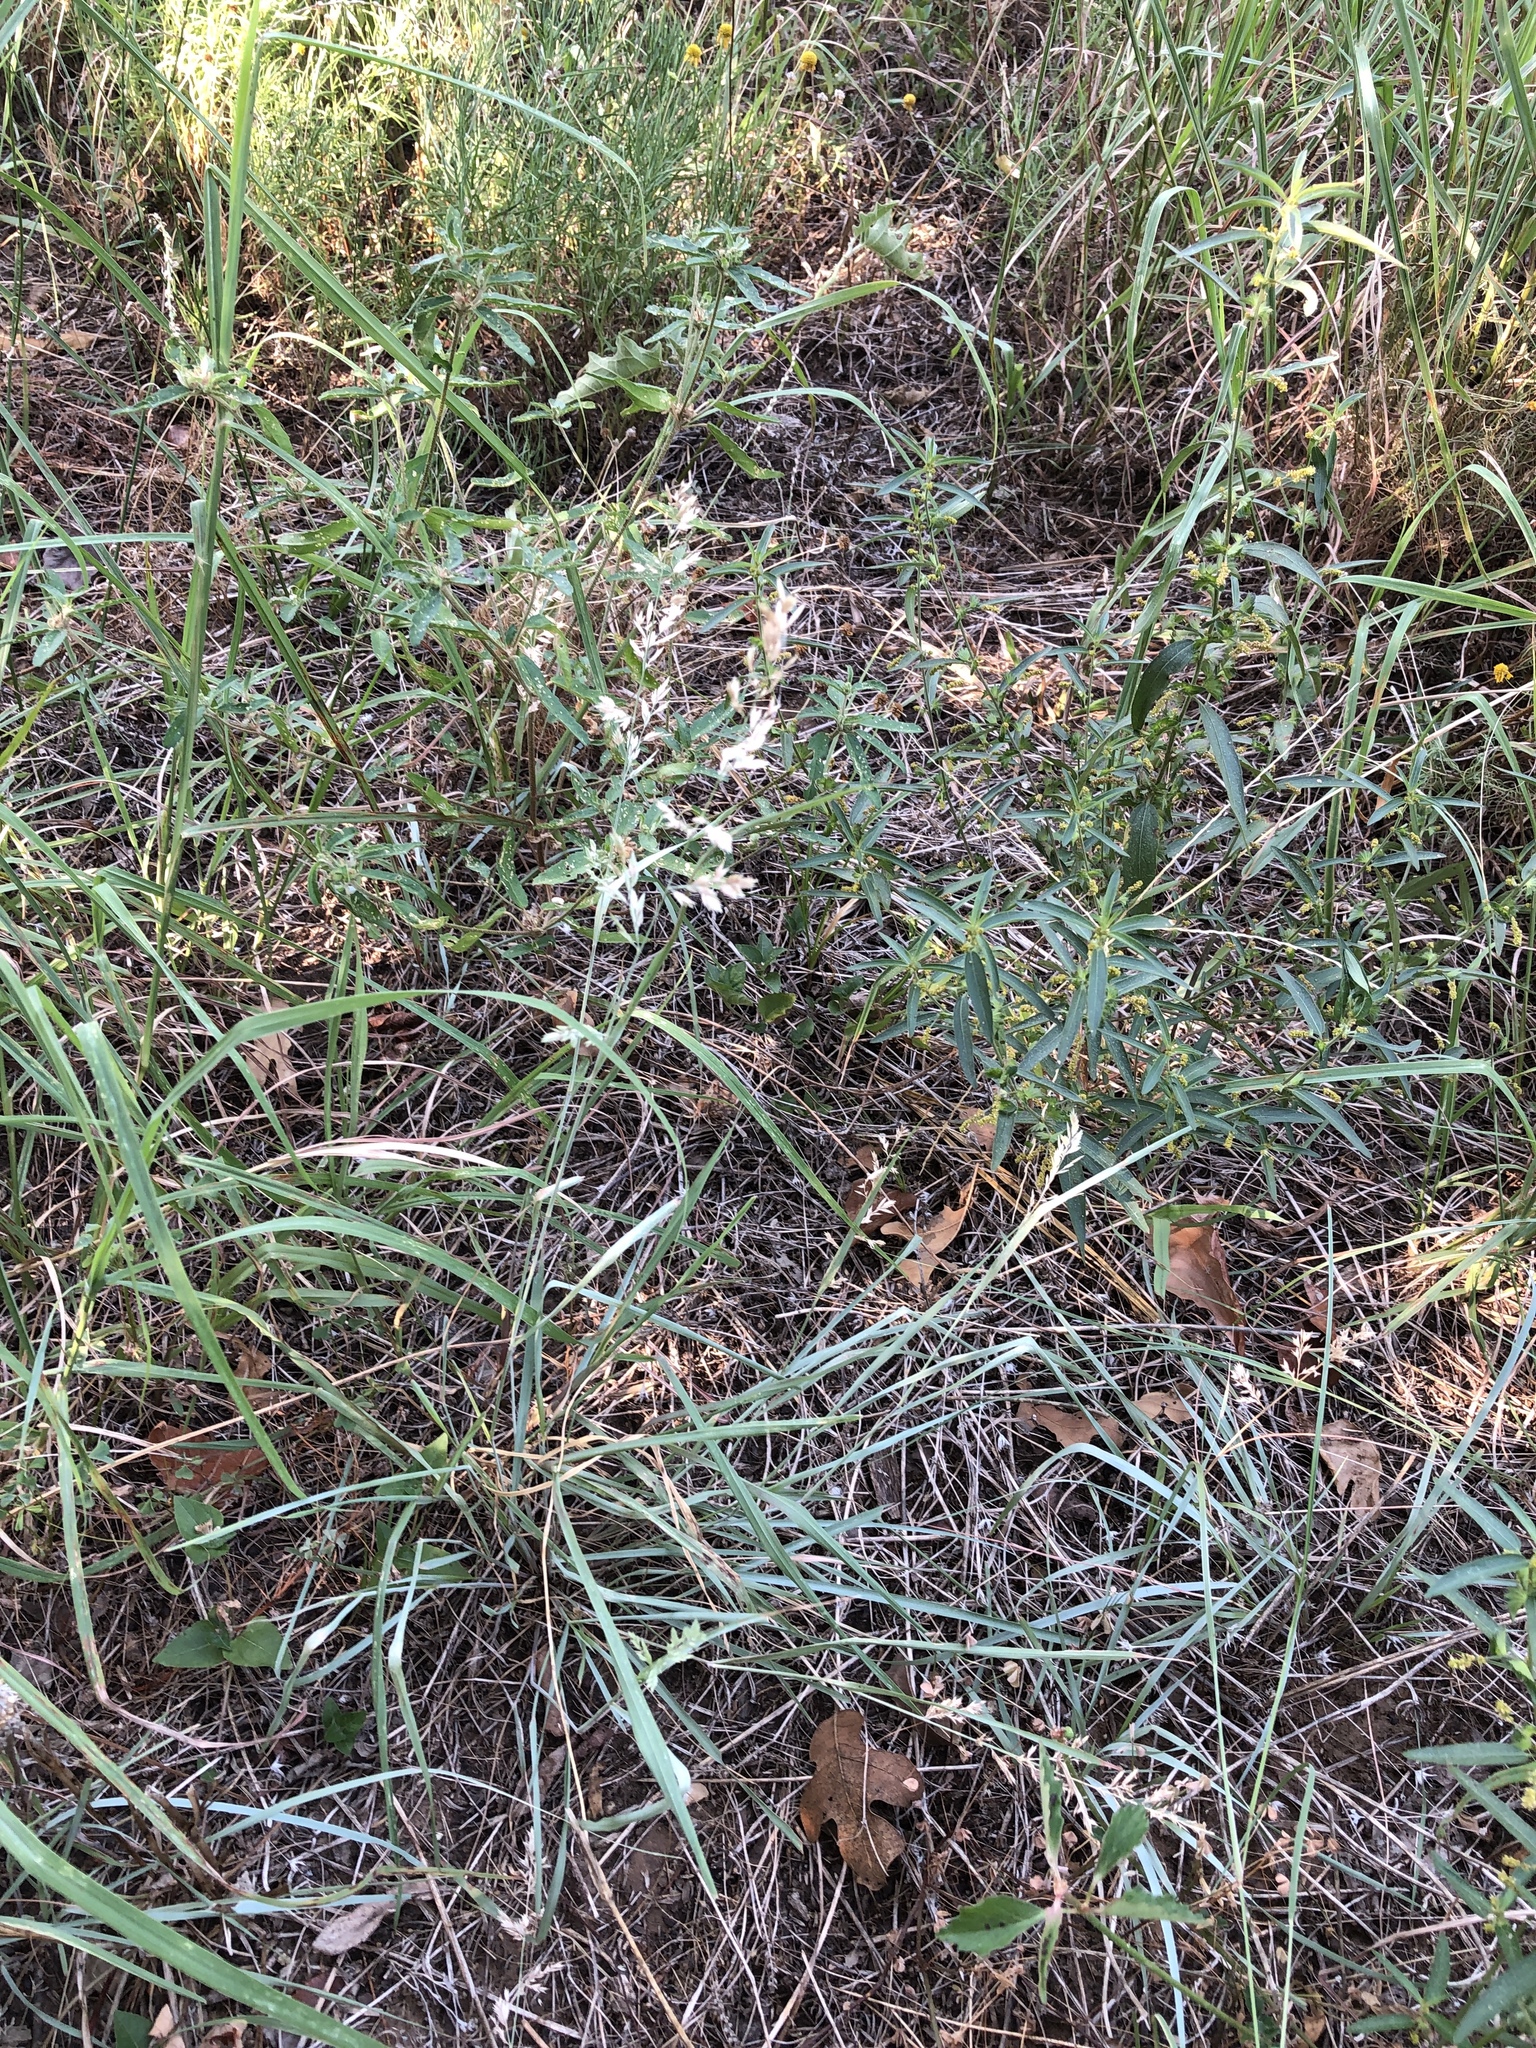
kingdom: Plantae
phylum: Tracheophyta
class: Liliopsida
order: Poales
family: Poaceae
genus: Eragrostis
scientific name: Eragrostis secundiflora
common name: Red love grass
